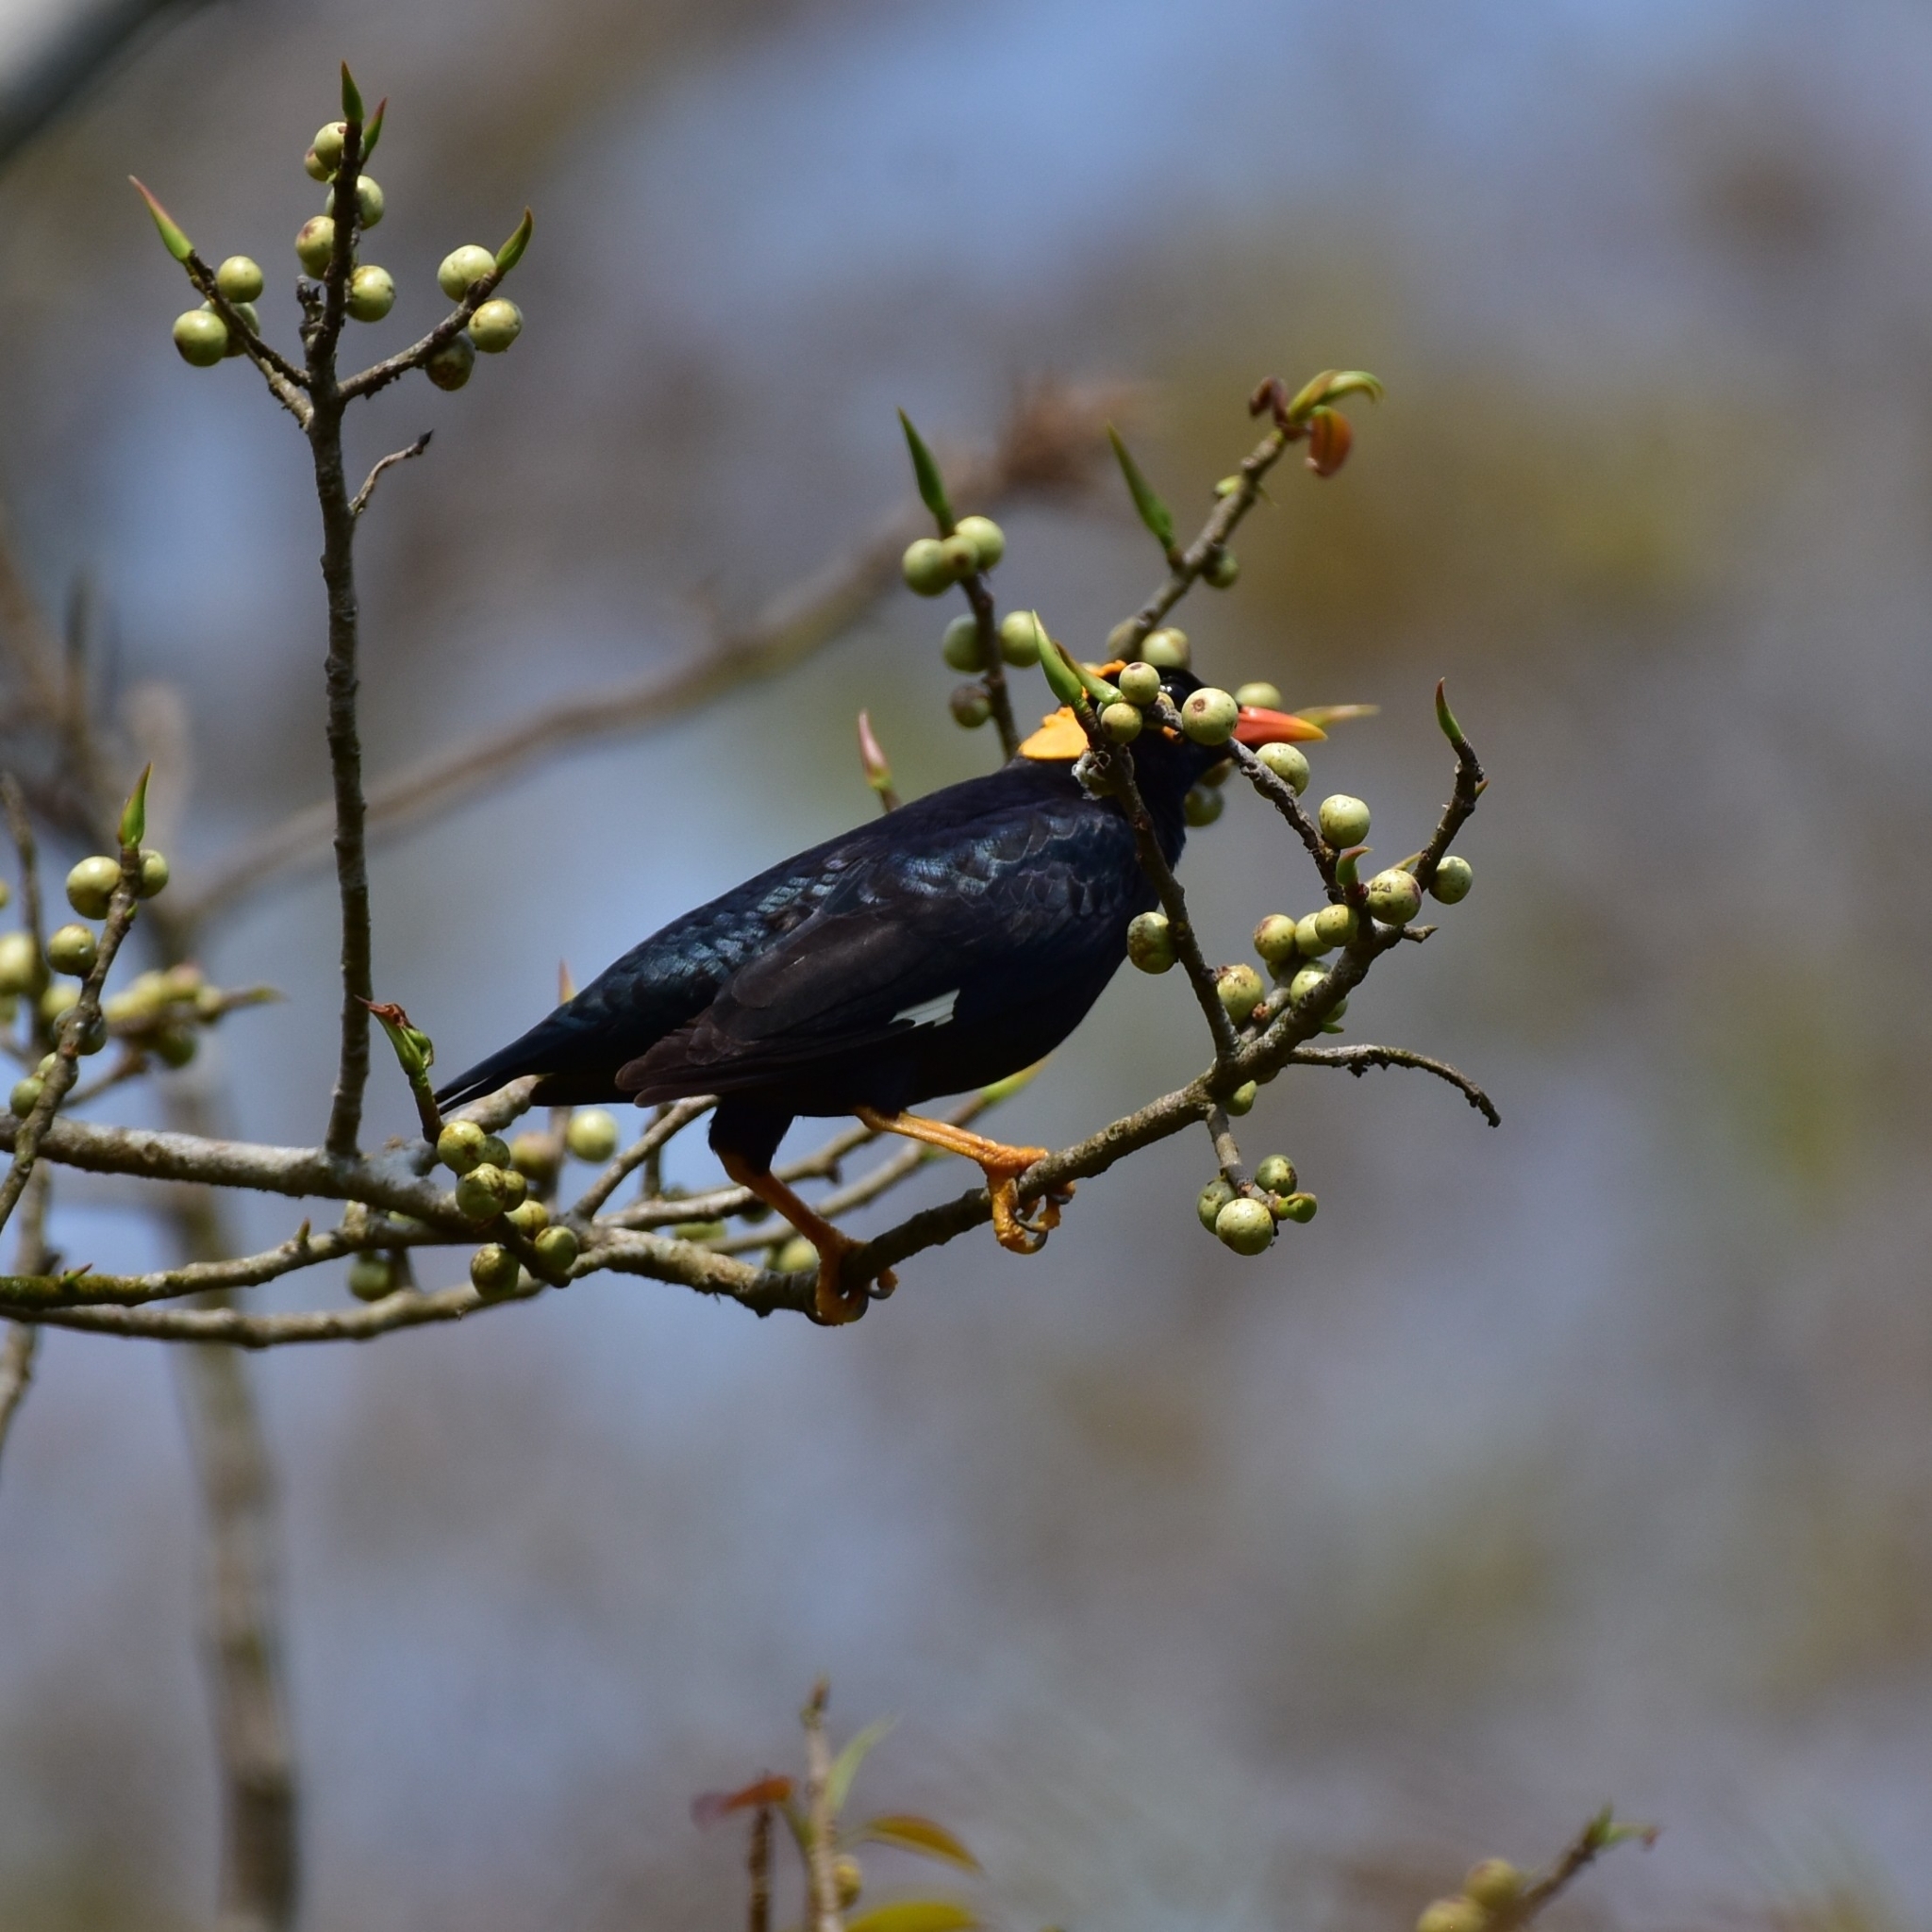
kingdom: Animalia
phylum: Chordata
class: Aves
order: Passeriformes
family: Sturnidae
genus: Gracula
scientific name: Gracula indica
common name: Southern hill myna
